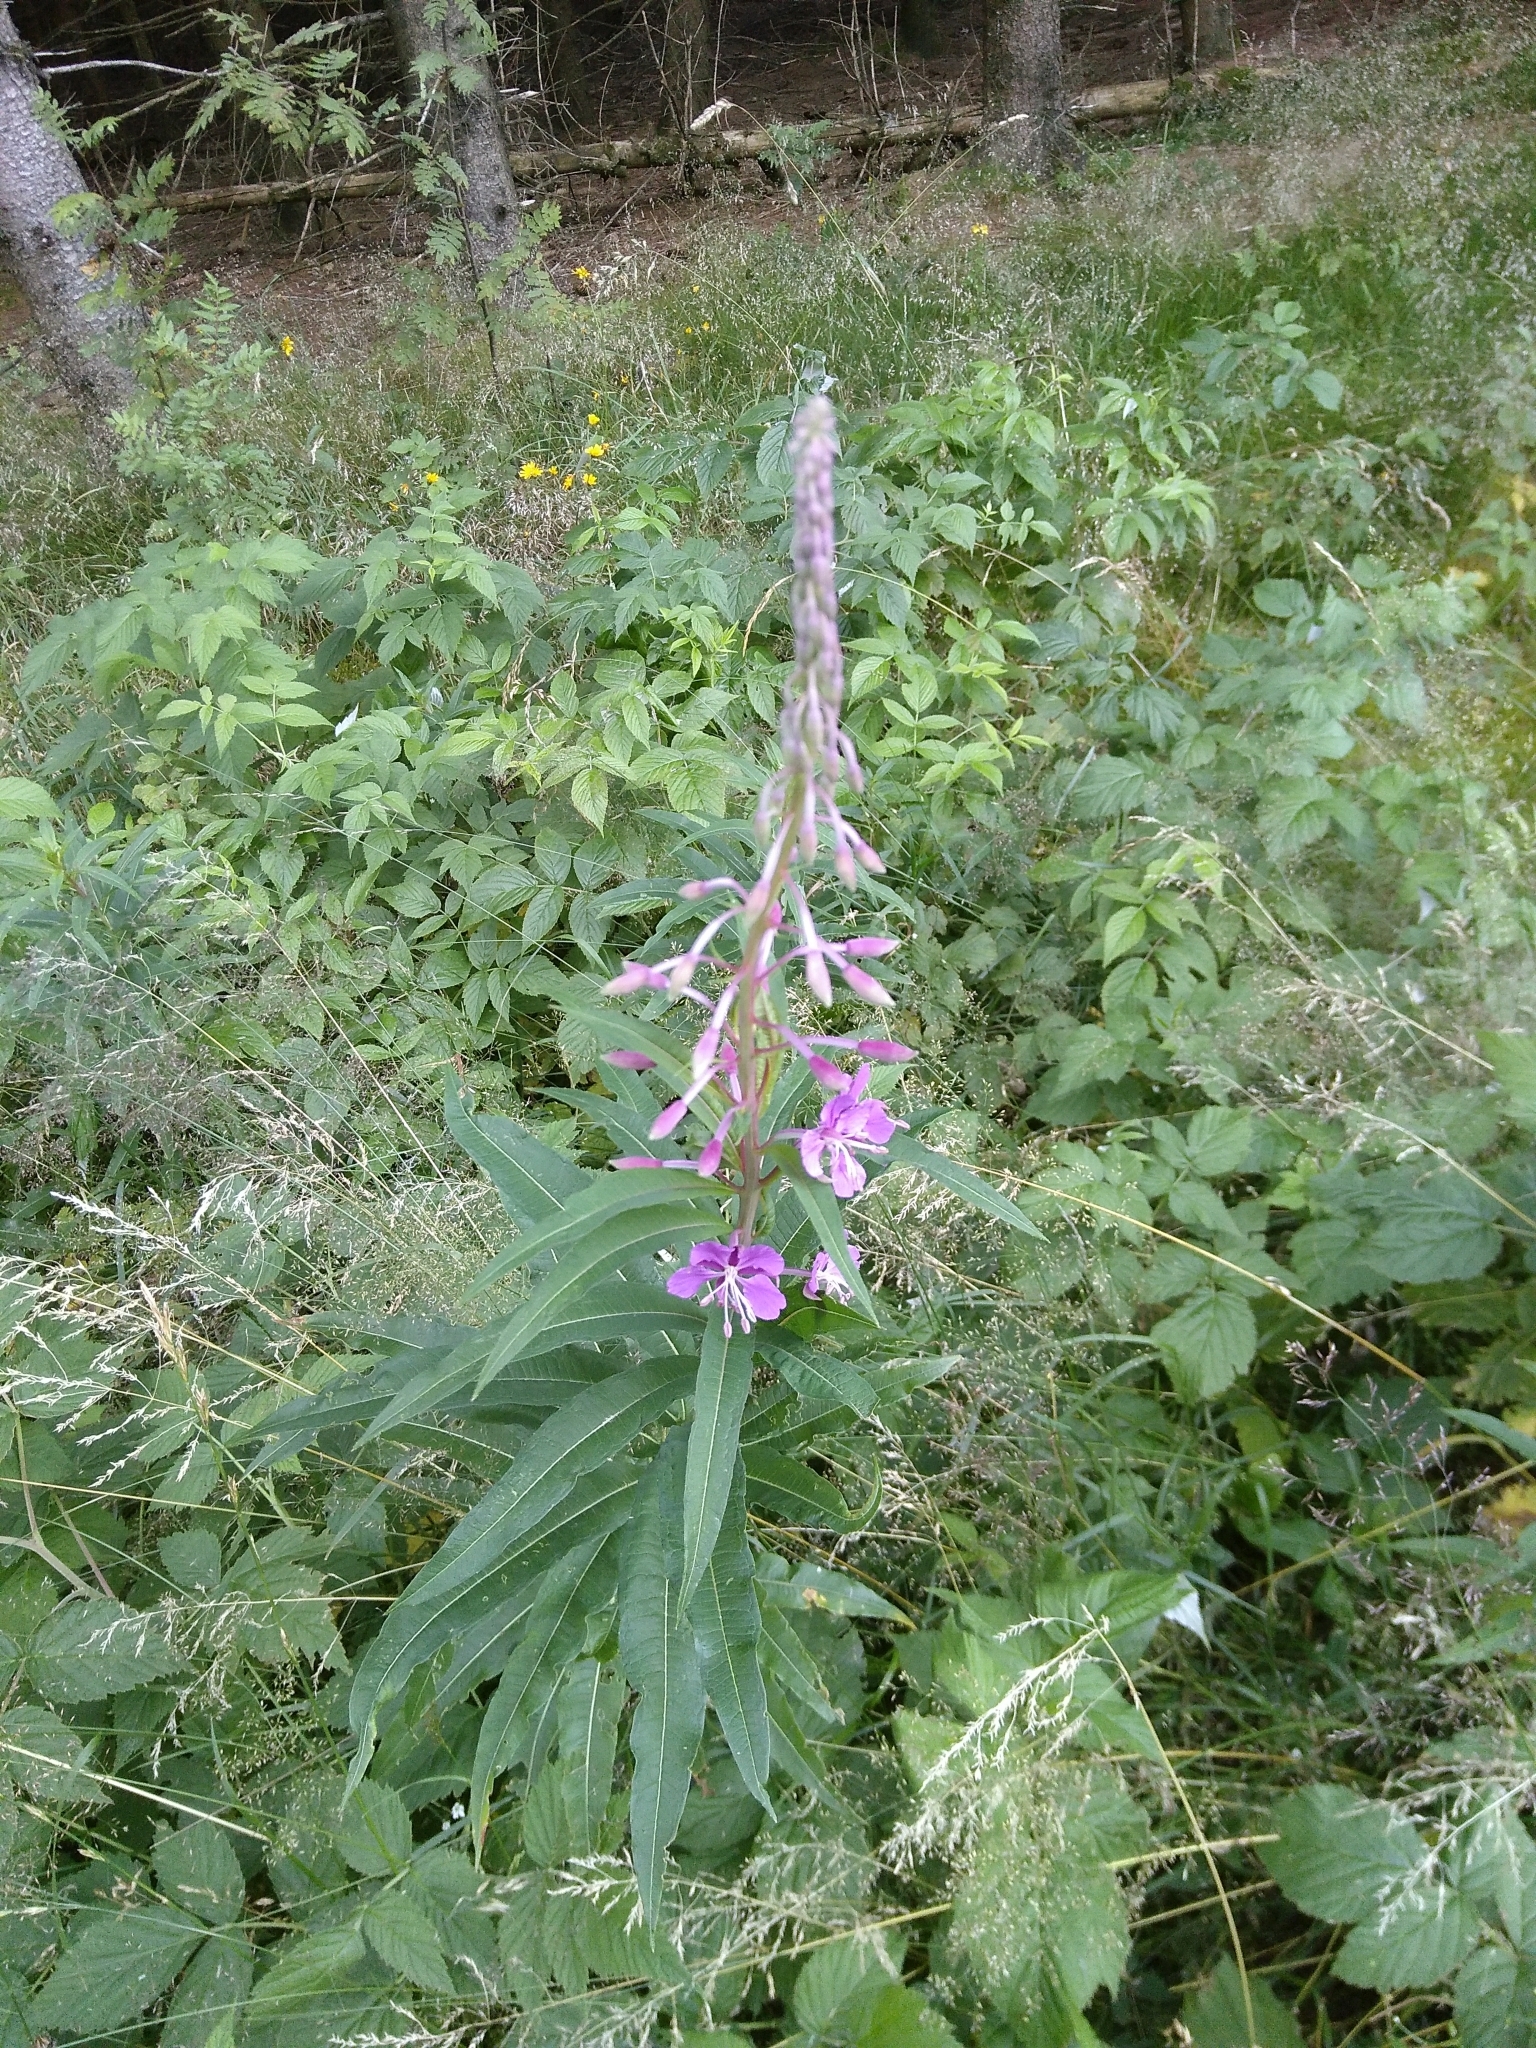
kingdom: Plantae
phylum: Tracheophyta
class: Magnoliopsida
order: Myrtales
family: Onagraceae
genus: Chamaenerion
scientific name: Chamaenerion angustifolium
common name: Fireweed
